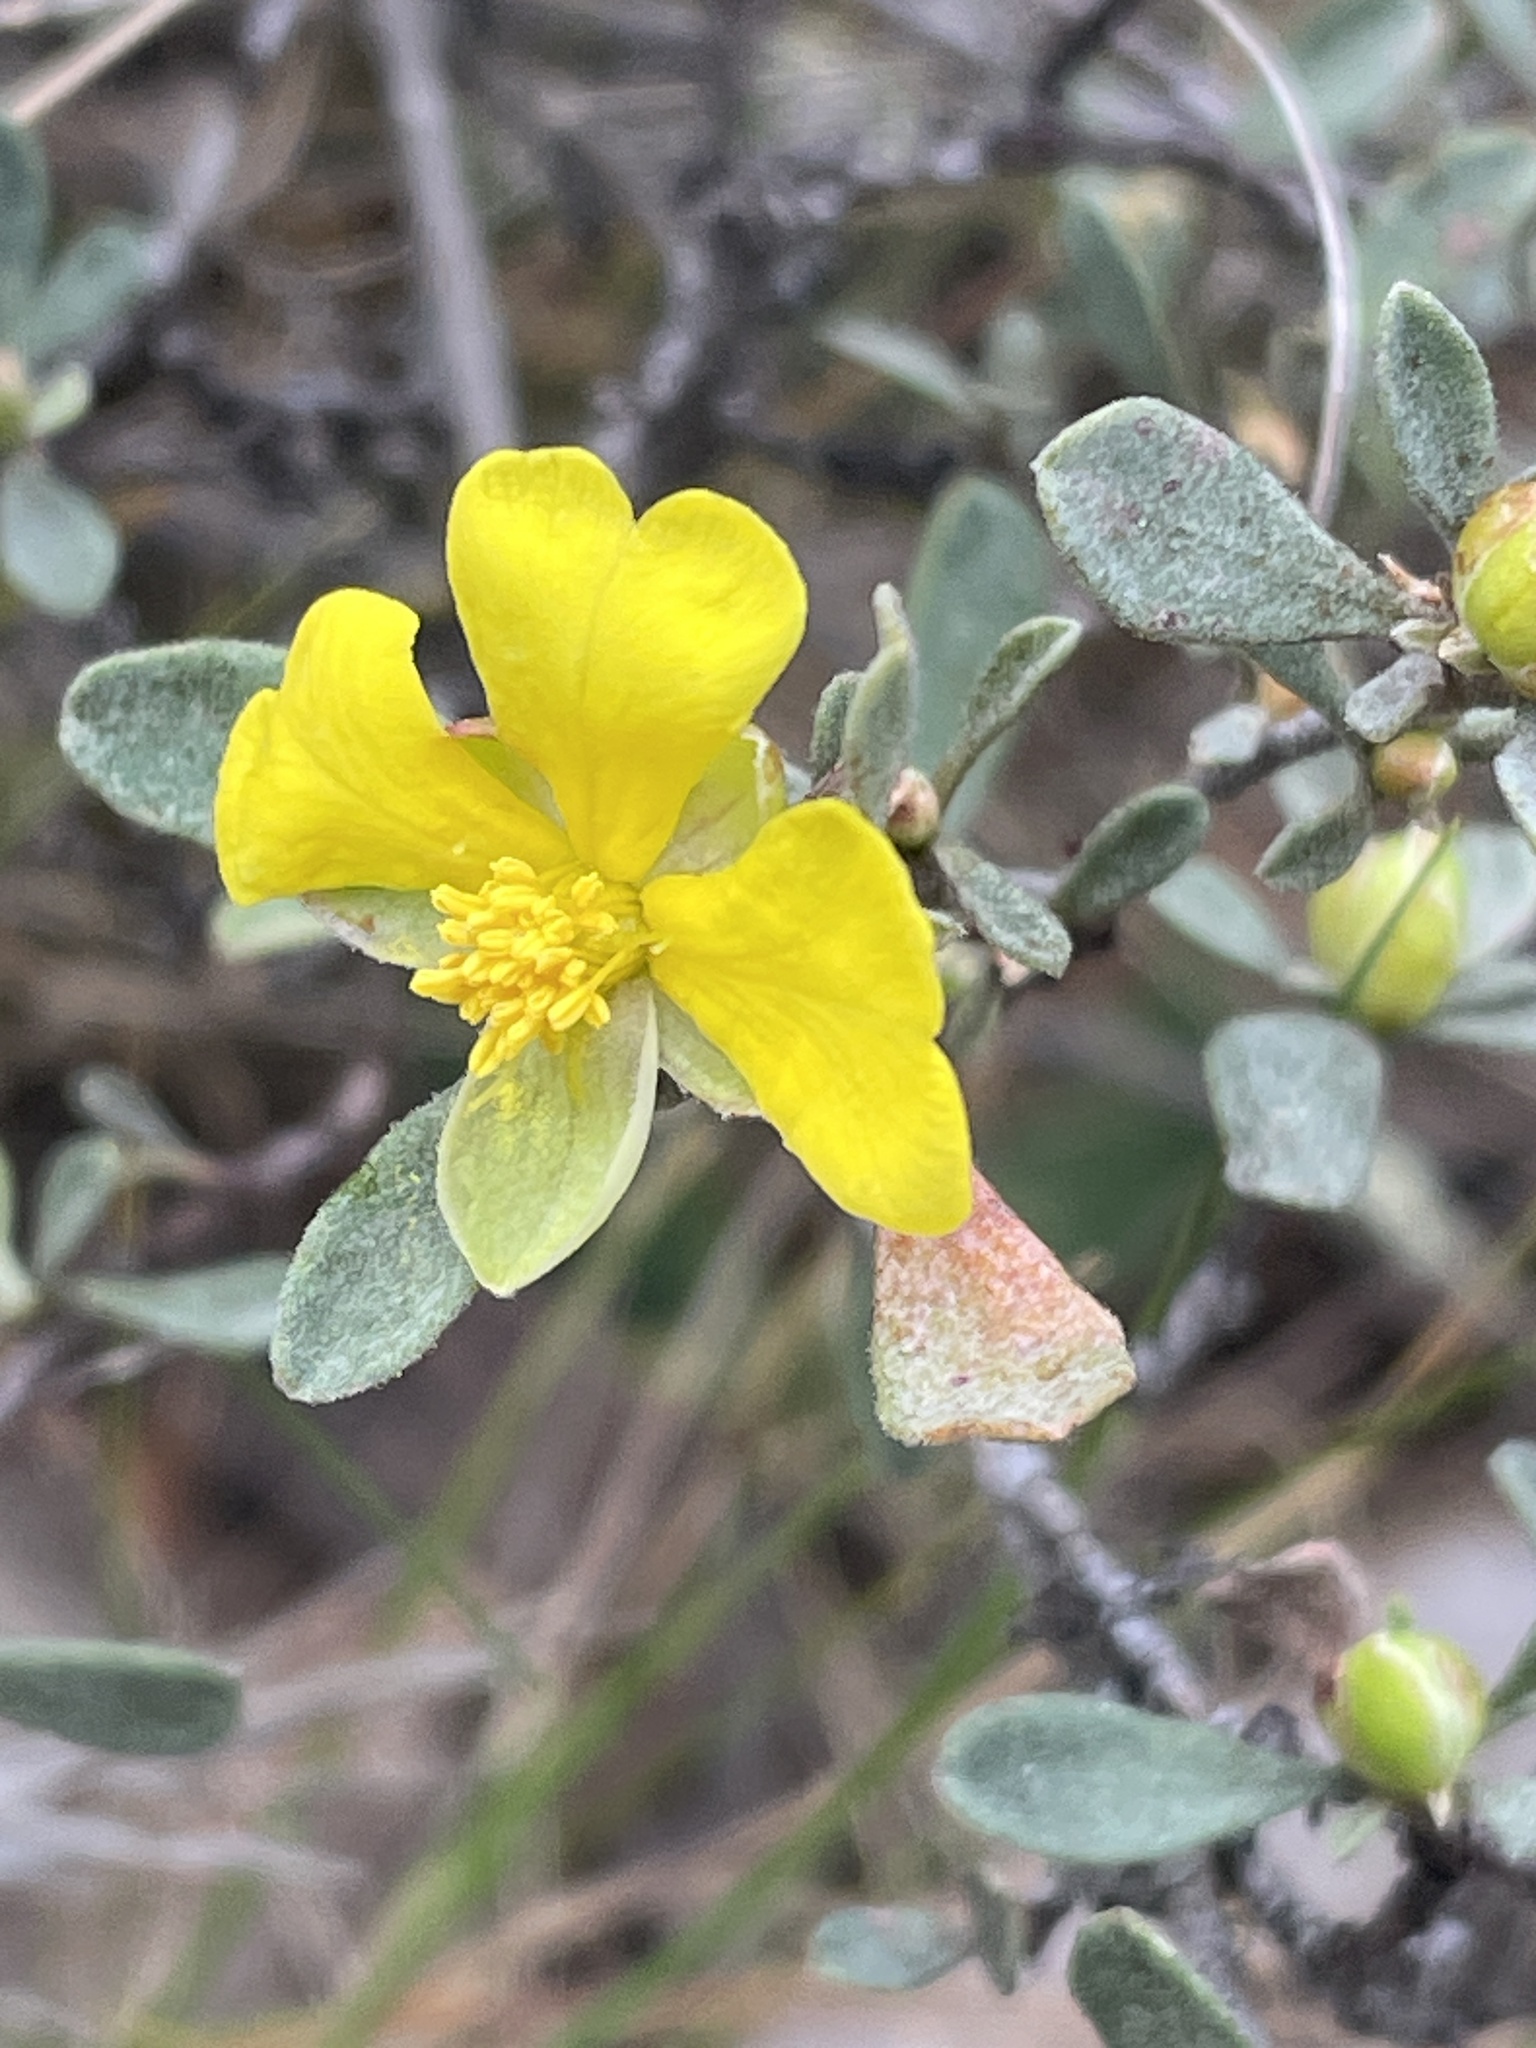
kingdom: Plantae
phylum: Tracheophyta
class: Magnoliopsida
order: Dilleniales
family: Dilleniaceae
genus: Hibbertia
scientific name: Hibbertia obtusifolia
